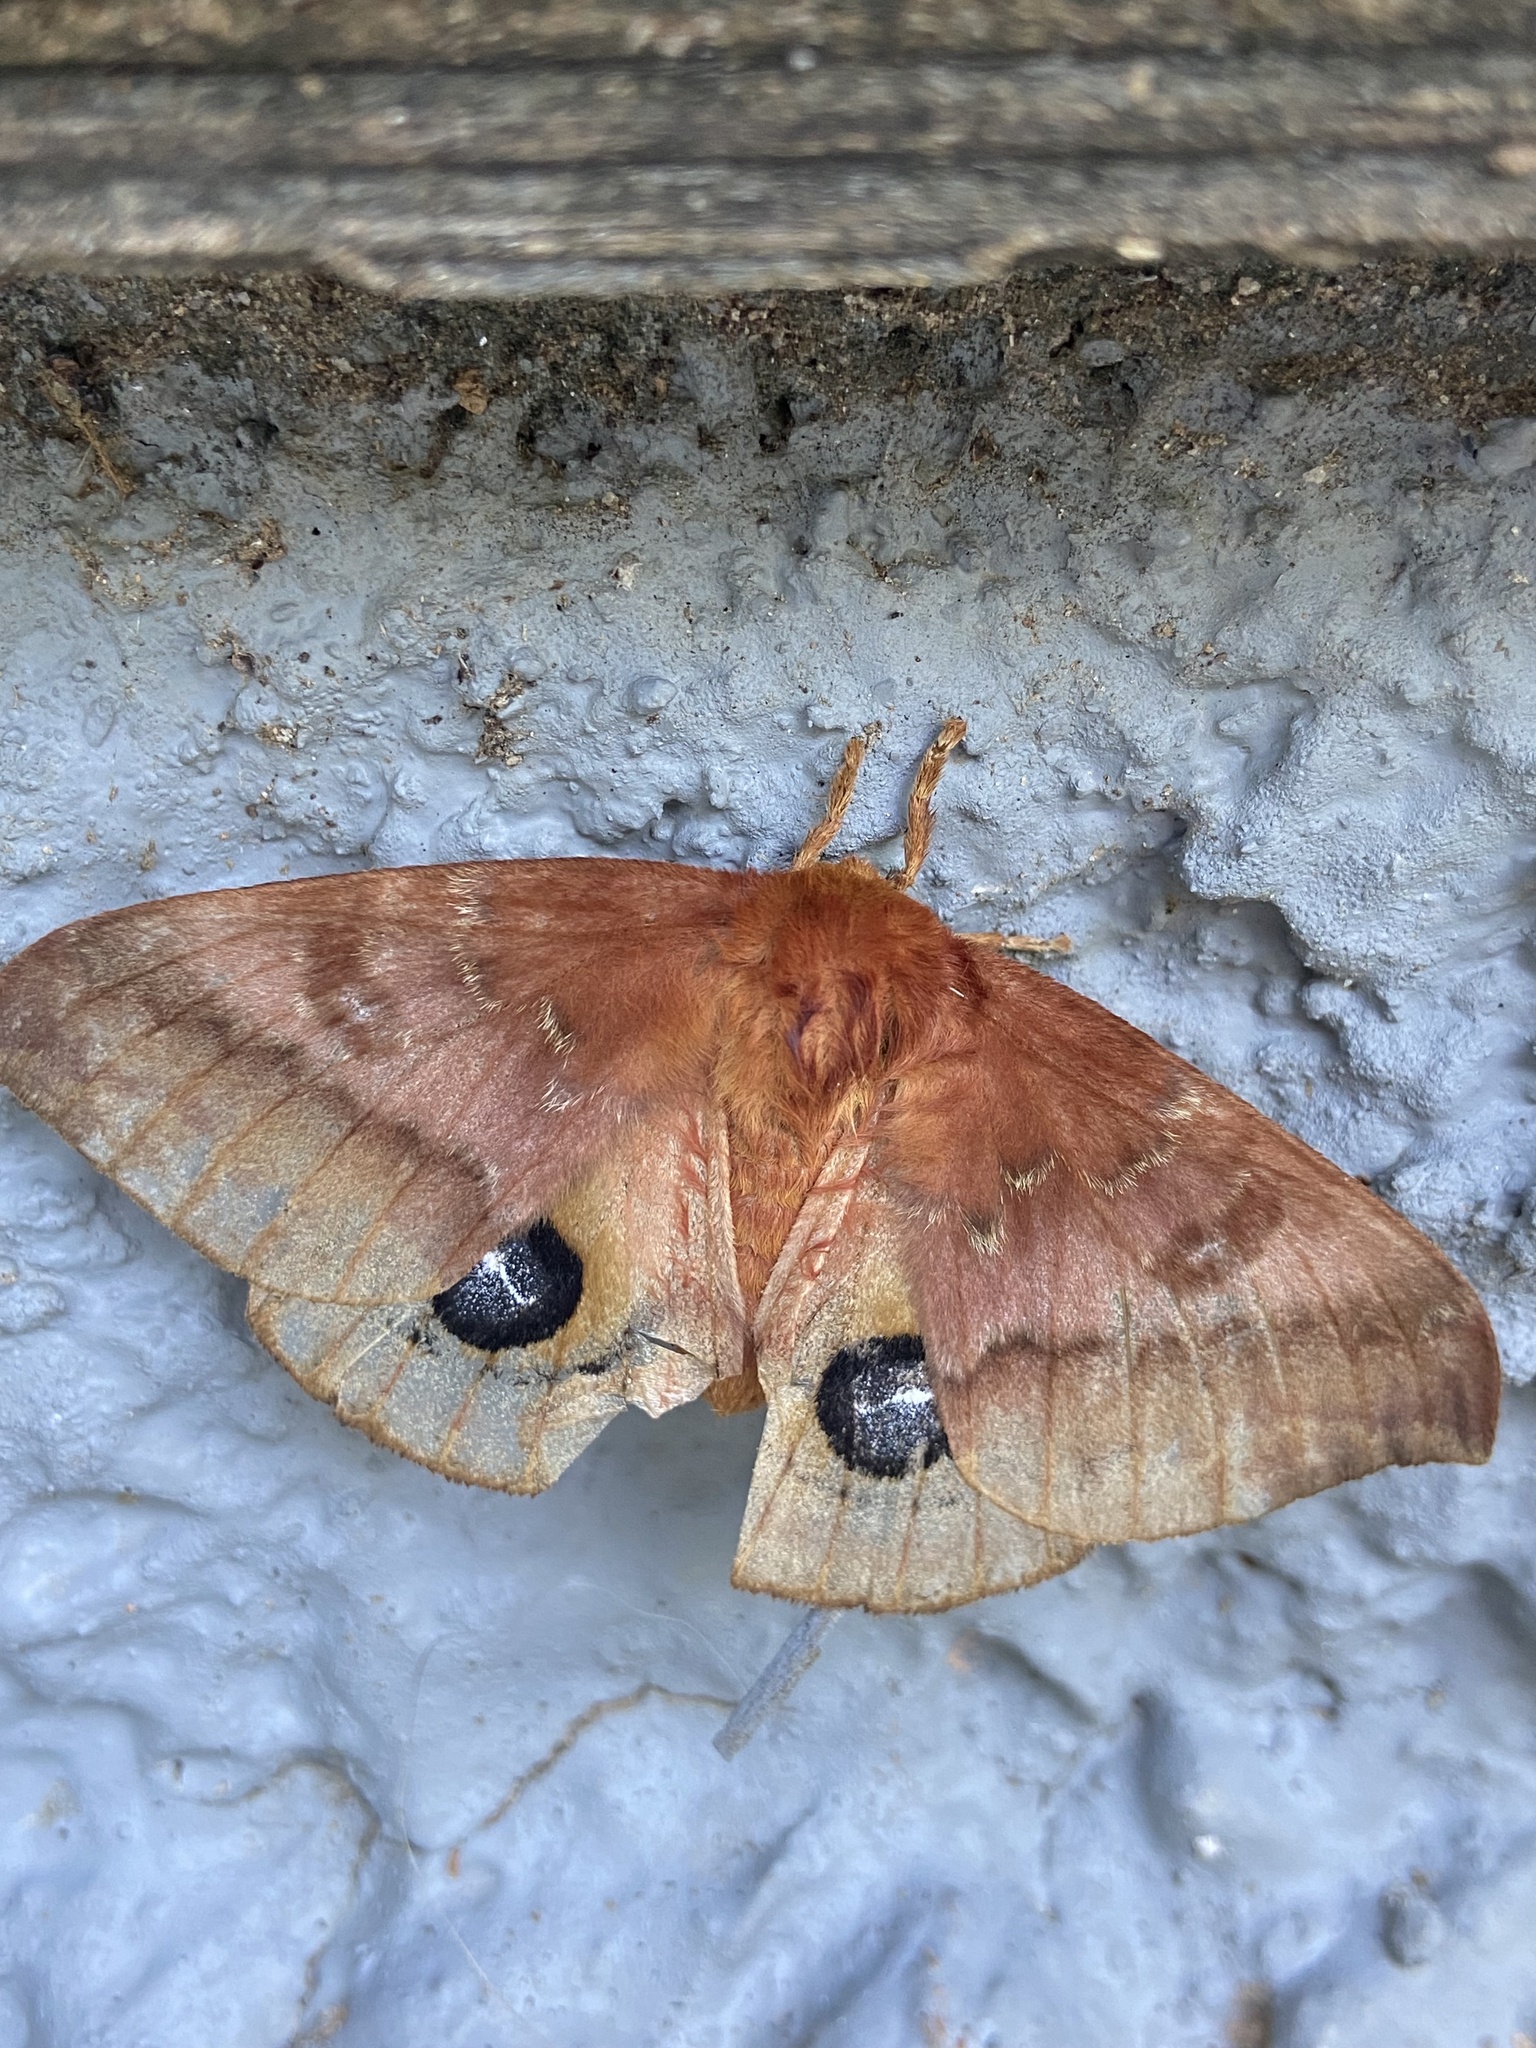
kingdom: Animalia
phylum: Arthropoda
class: Insecta
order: Lepidoptera
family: Saturniidae
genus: Automeris
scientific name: Automeris io
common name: Io moth
